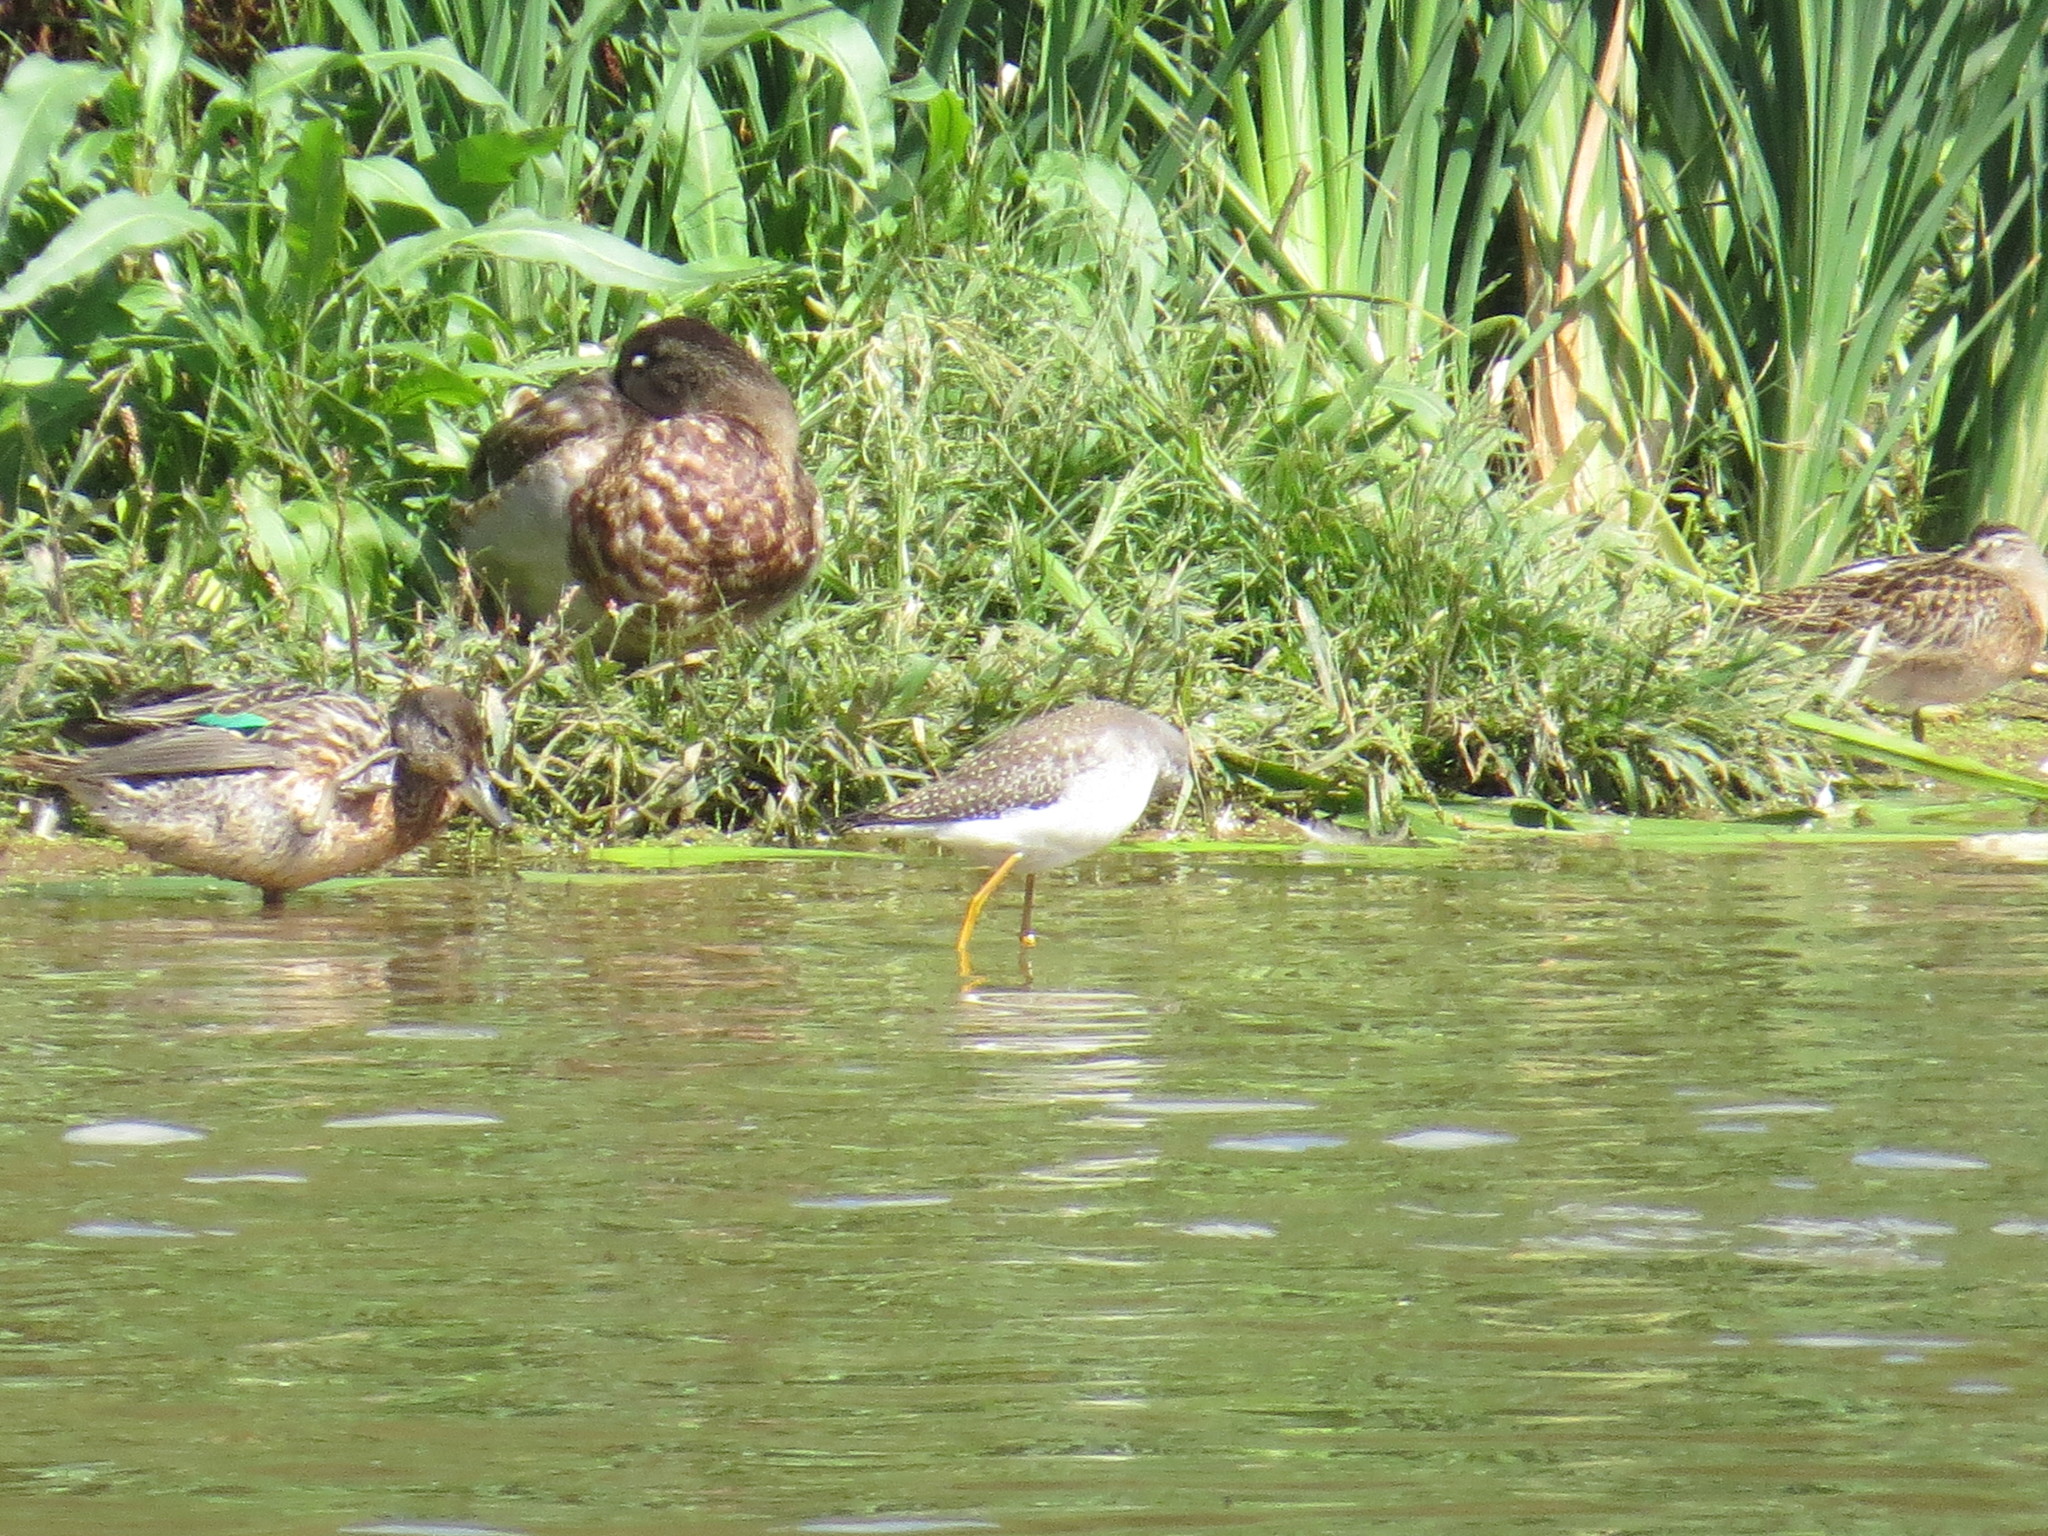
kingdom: Animalia
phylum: Chordata
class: Aves
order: Charadriiformes
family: Scolopacidae
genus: Tringa
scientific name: Tringa melanoleuca
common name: Greater yellowlegs
